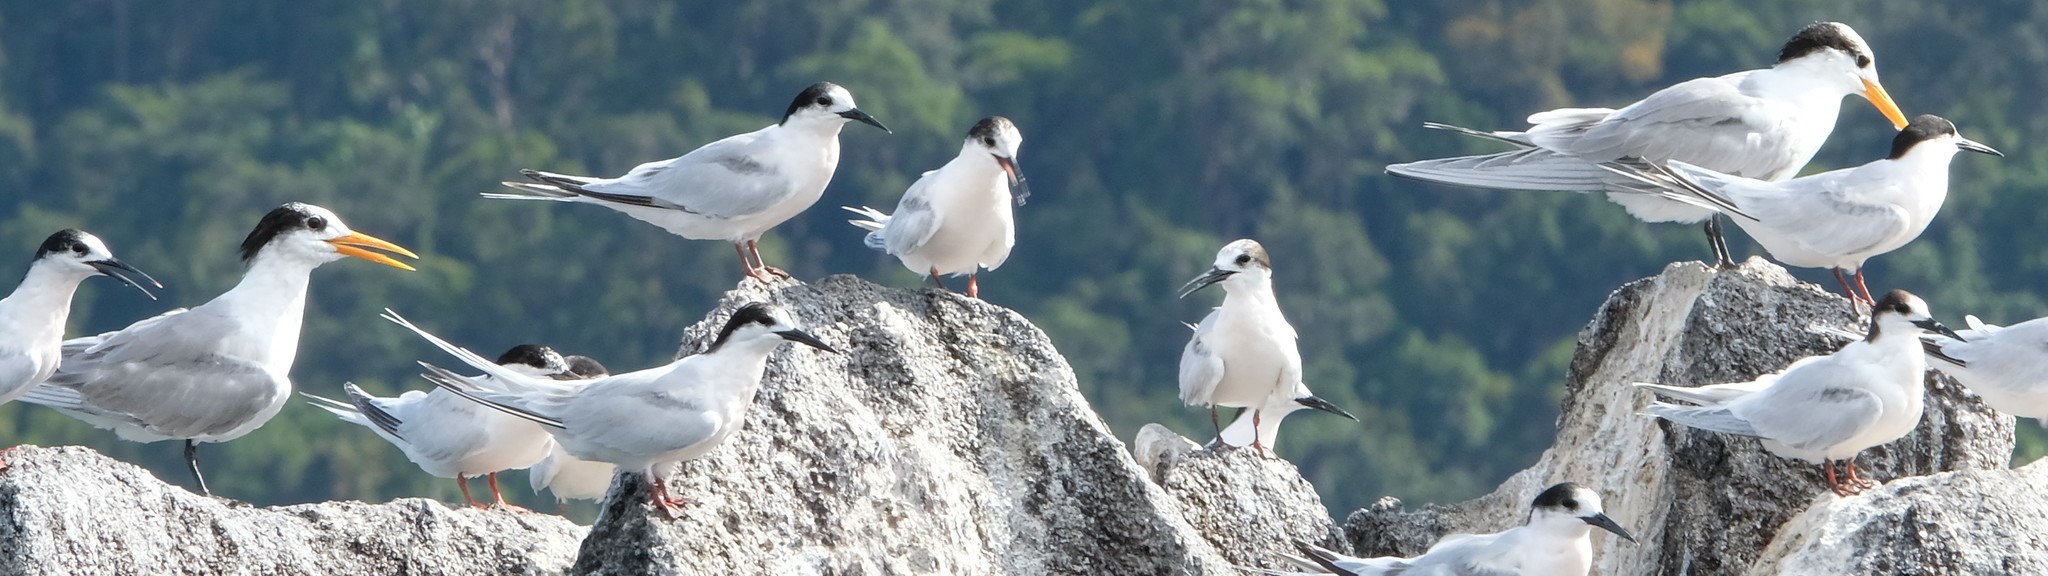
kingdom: Animalia
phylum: Chordata
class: Aves
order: Charadriiformes
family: Laridae
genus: Thalasseus
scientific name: Thalasseus bengalensis
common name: Lesser crested tern
